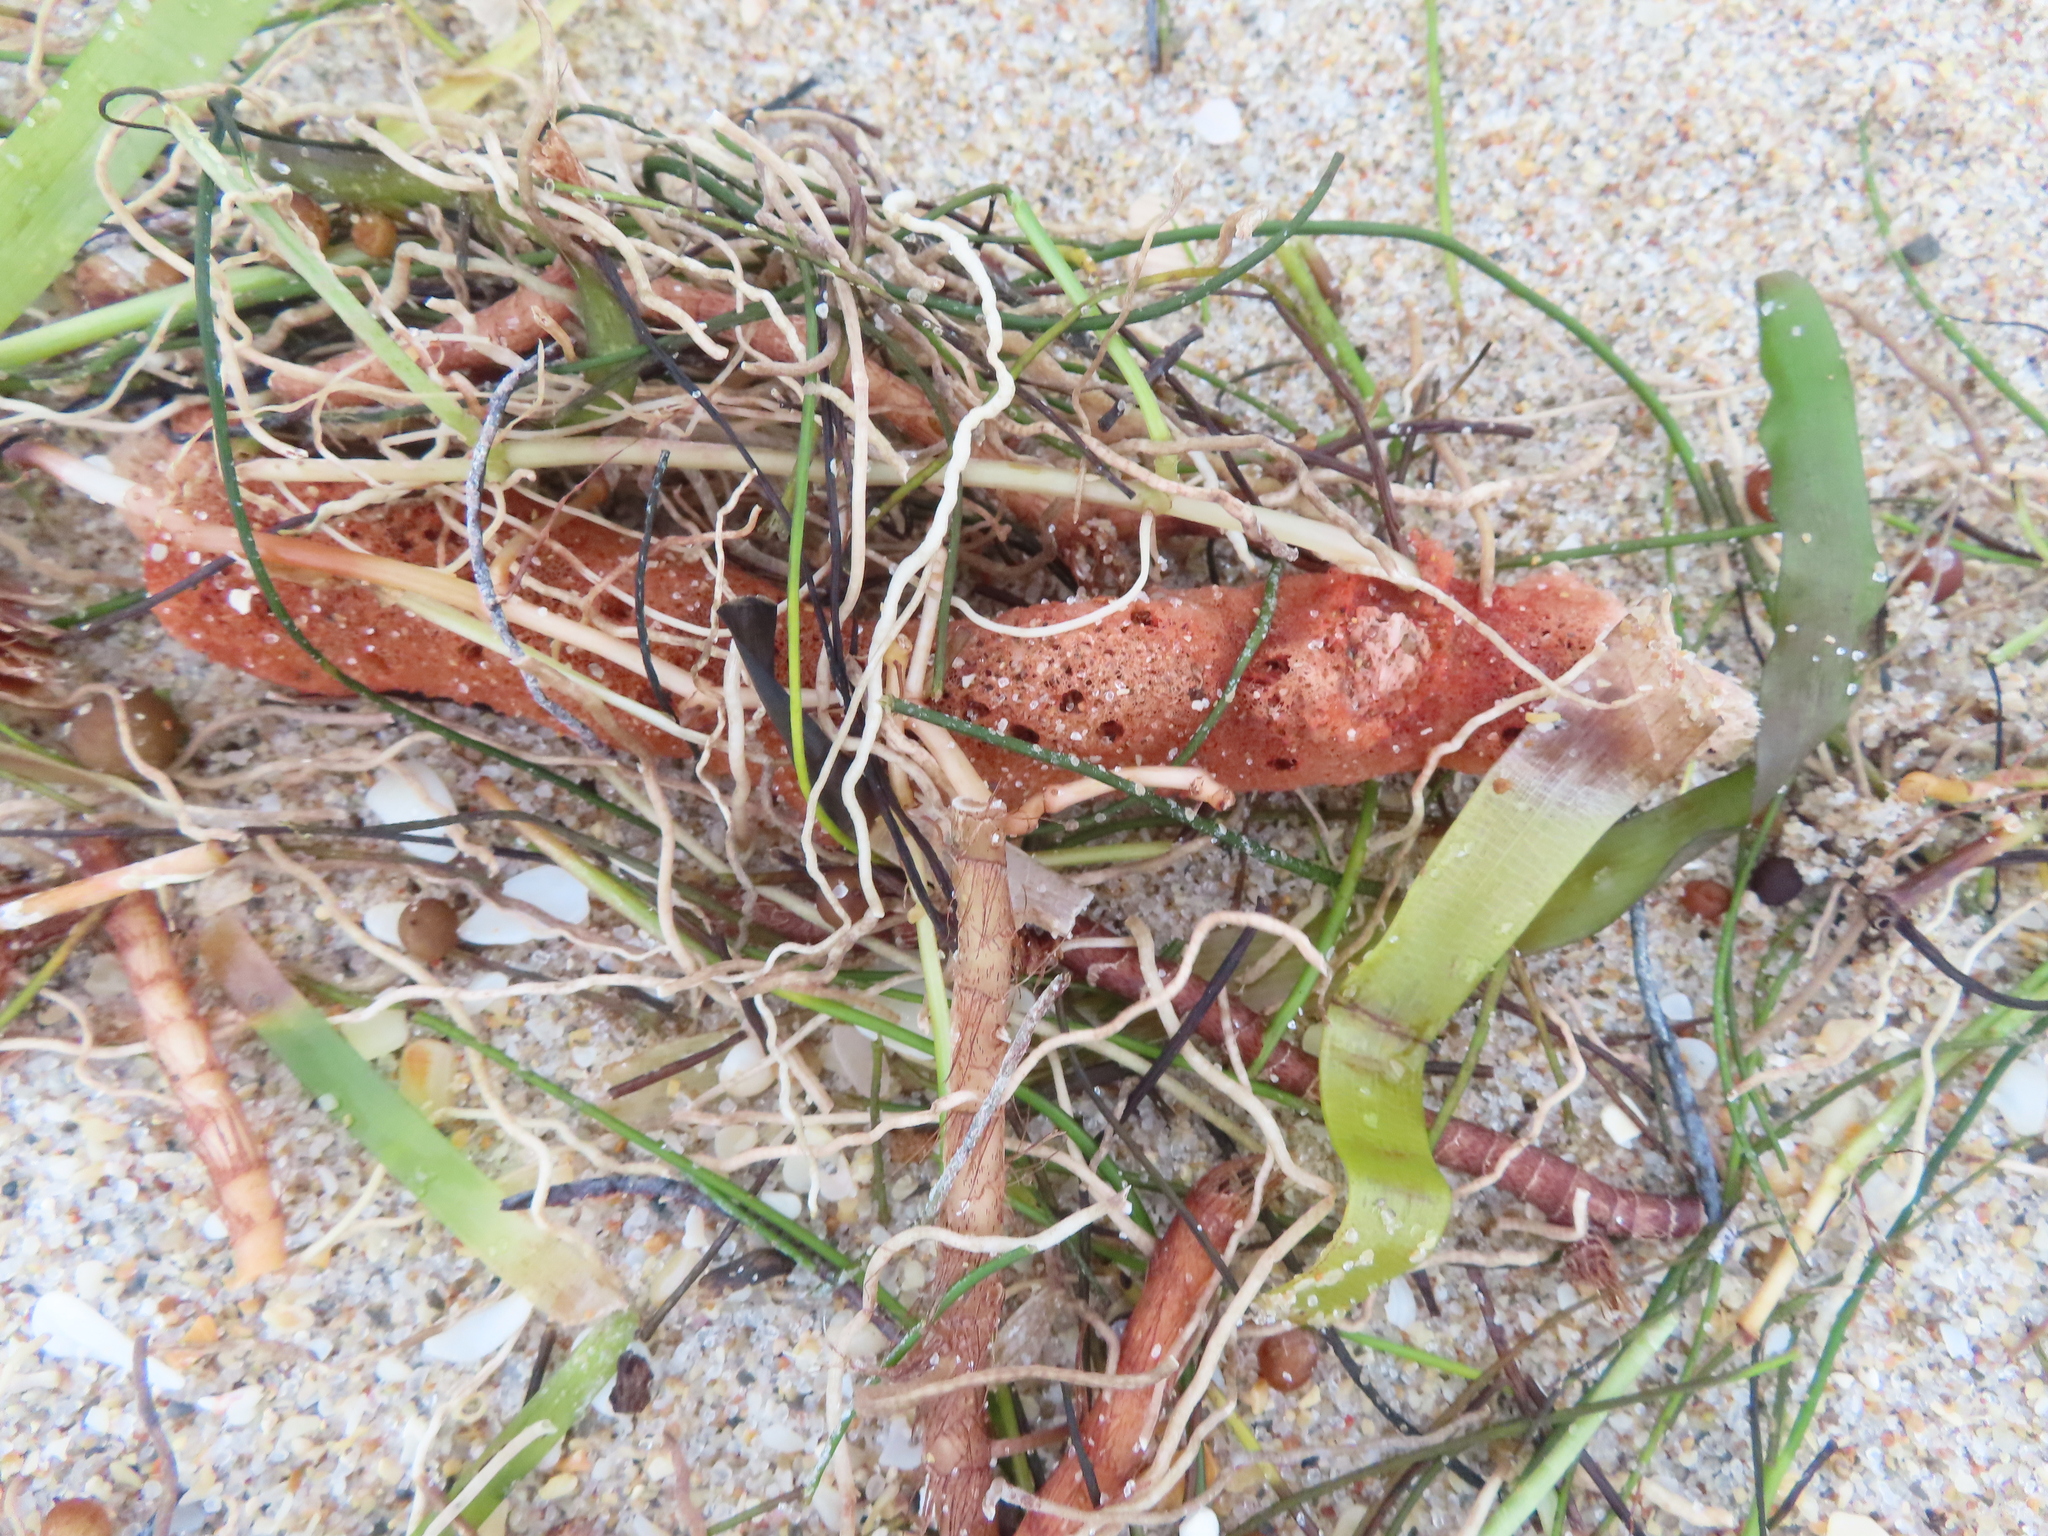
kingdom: Animalia
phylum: Porifera
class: Demospongiae
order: Haplosclerida
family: Niphatidae
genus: Amphimedon
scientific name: Amphimedon compressa
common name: Red sponge
